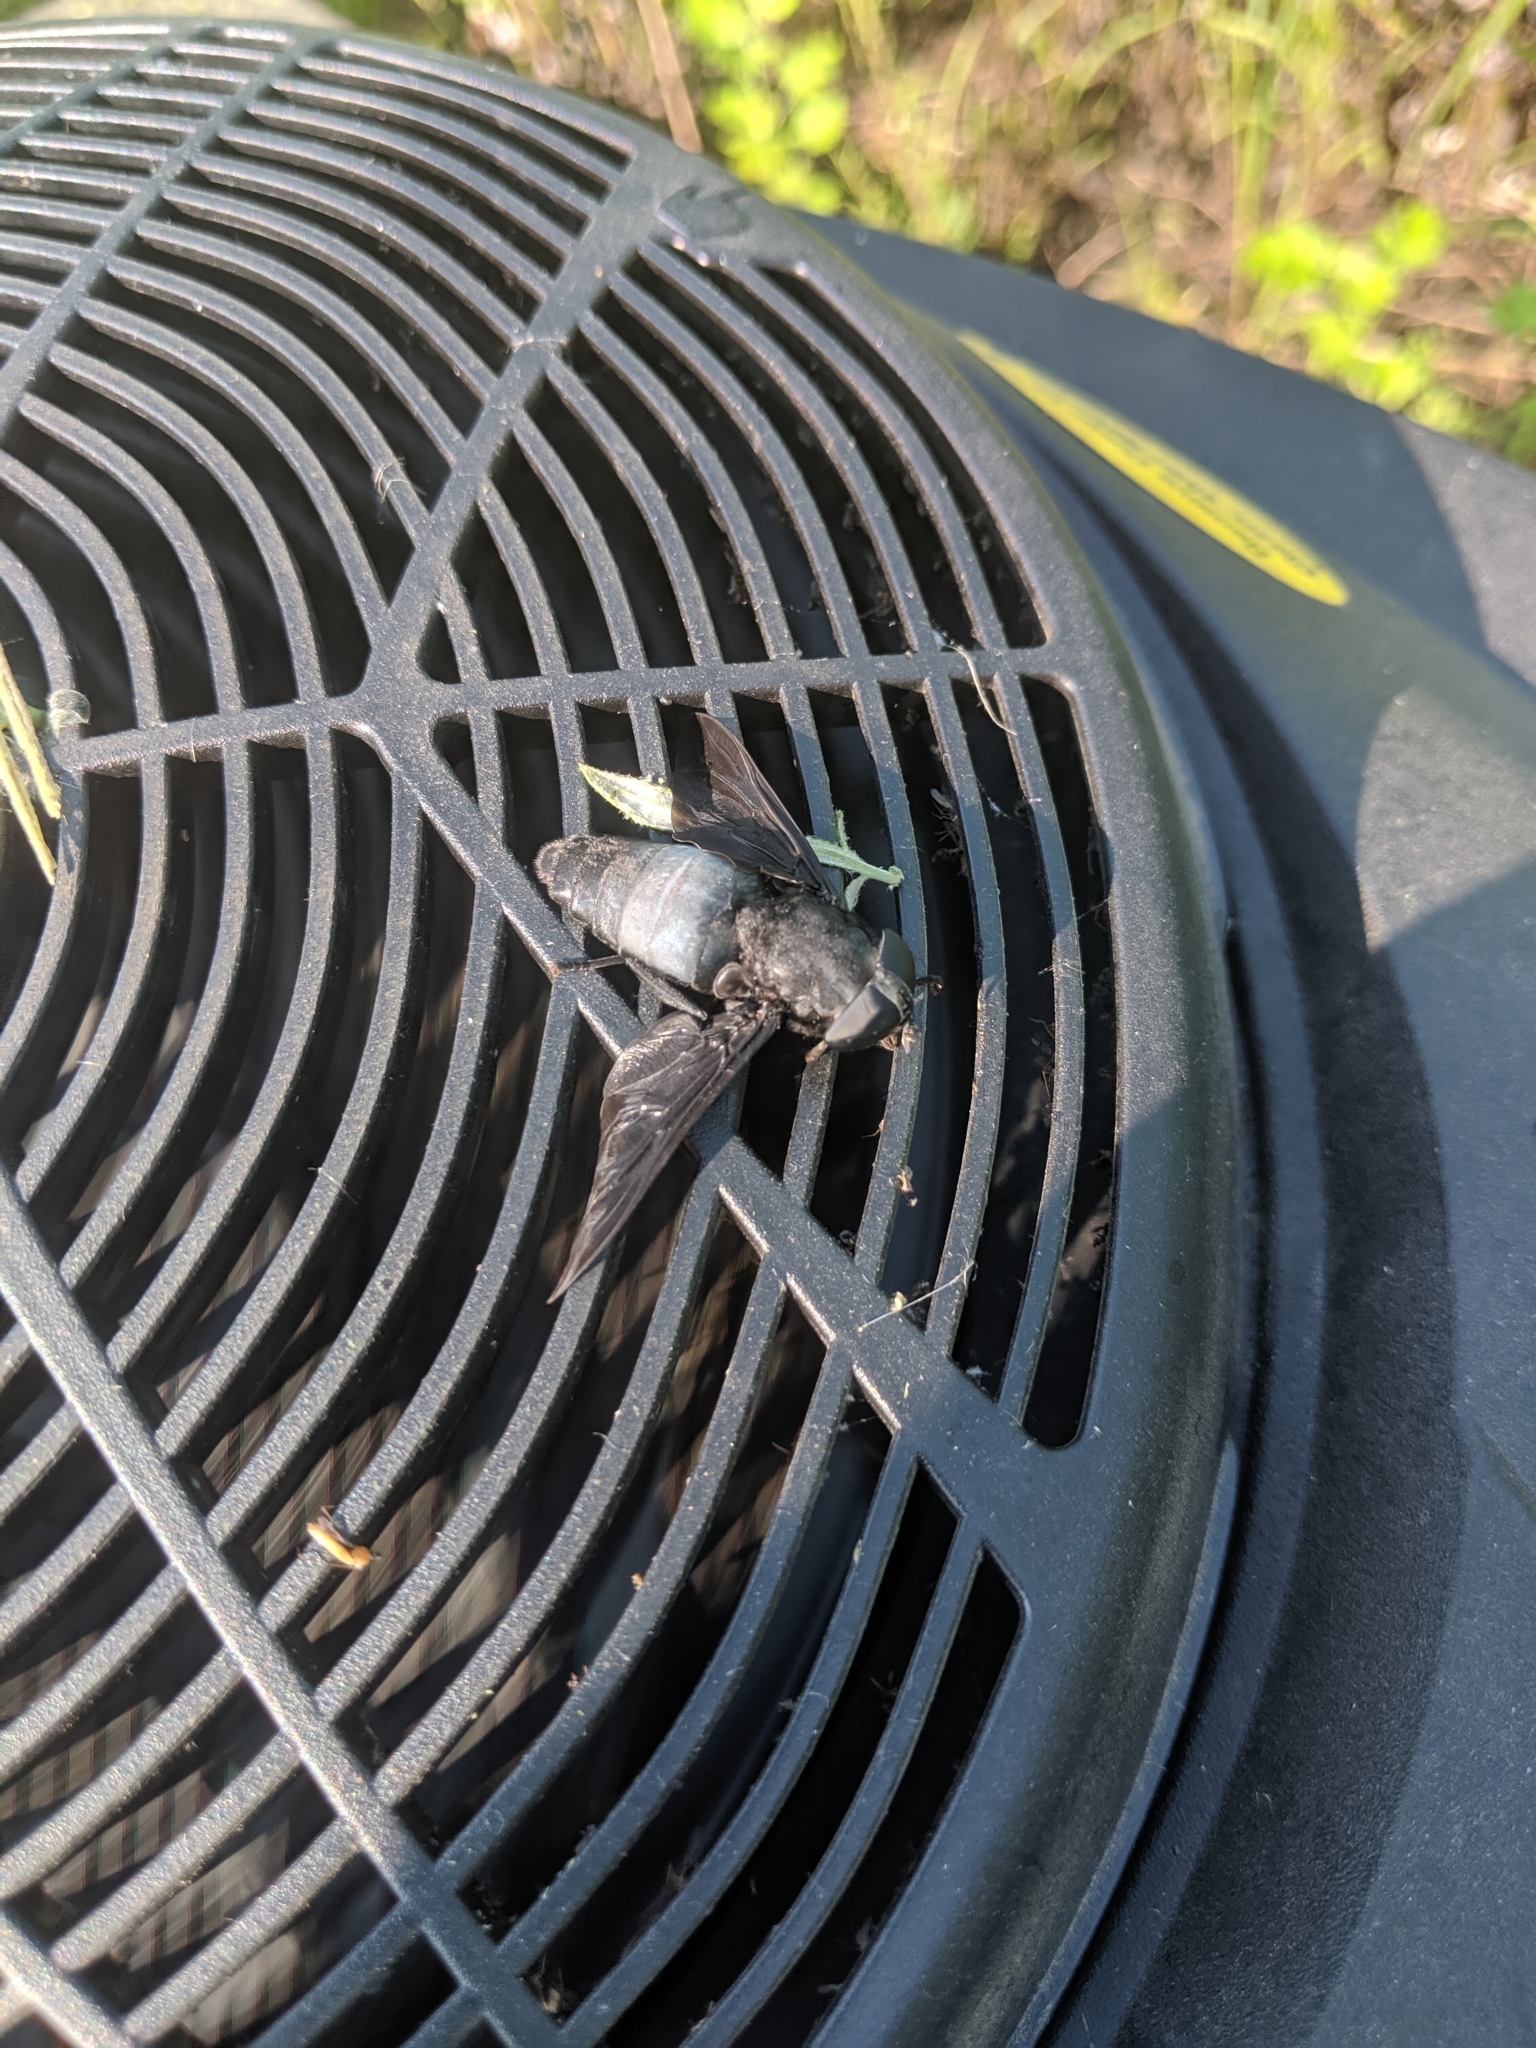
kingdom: Animalia
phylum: Arthropoda
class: Insecta
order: Diptera
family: Tabanidae
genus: Tabanus
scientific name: Tabanus atratus
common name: Black horse fly
